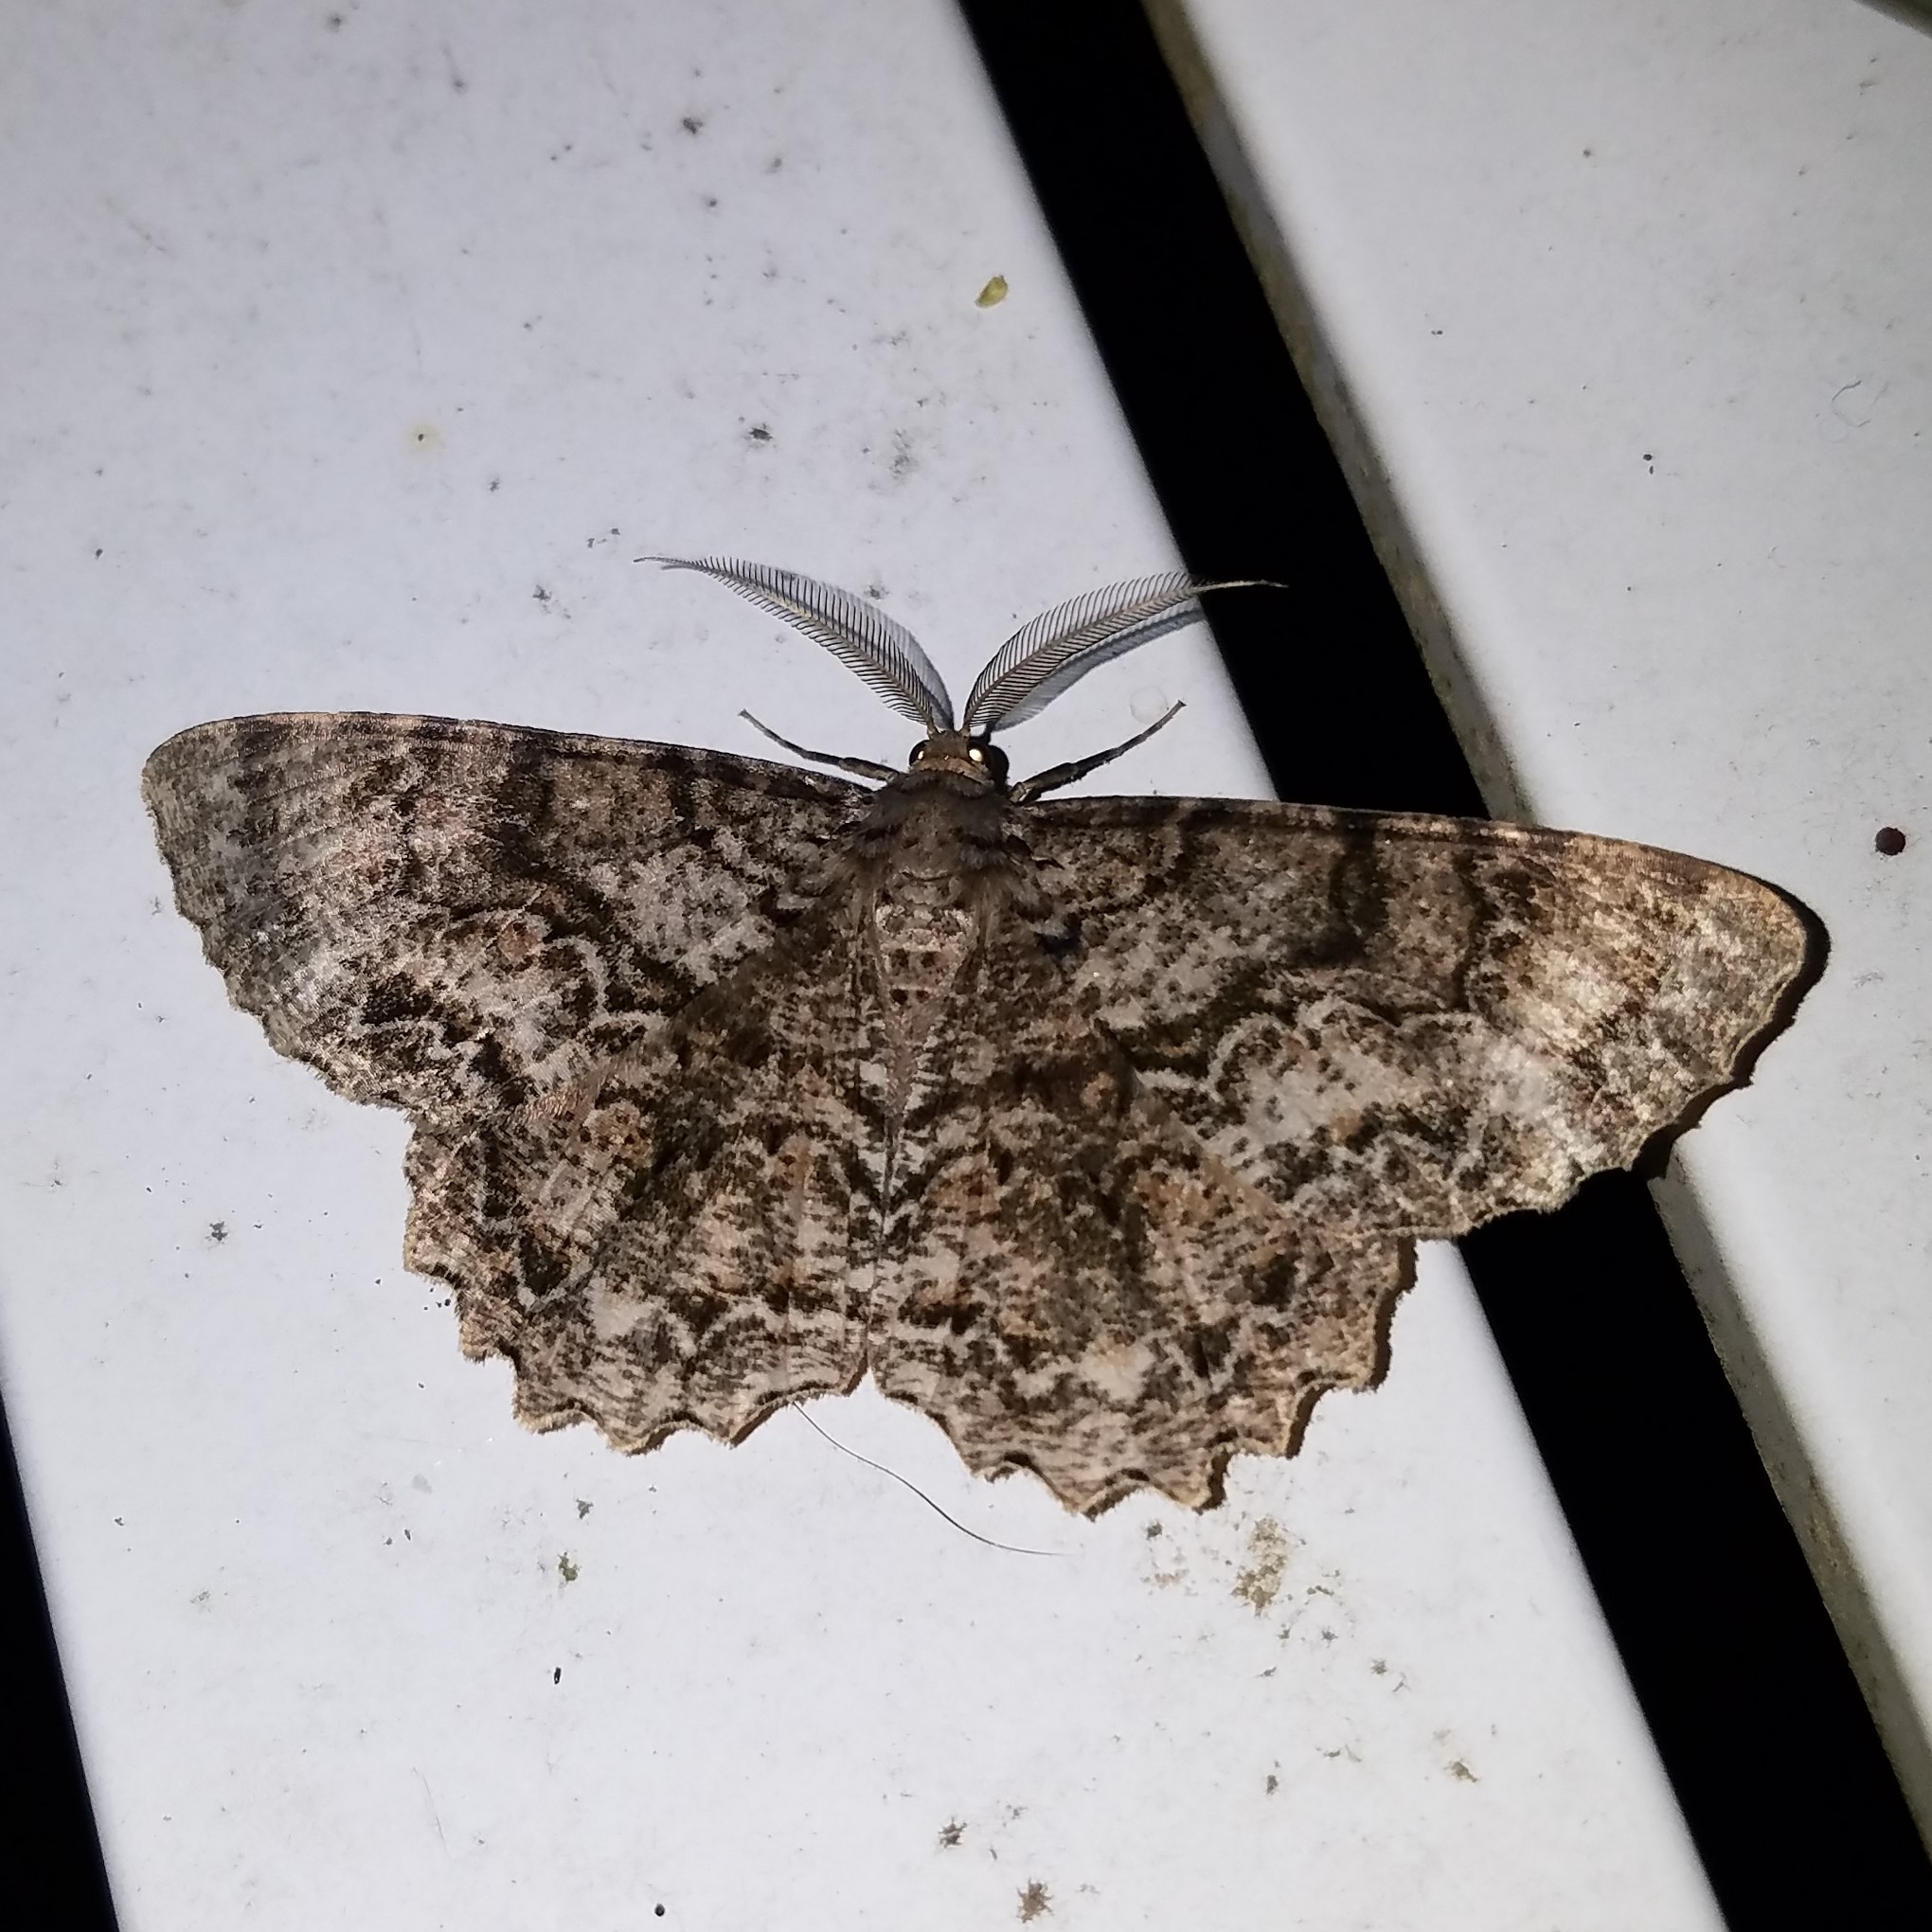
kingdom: Animalia
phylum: Arthropoda
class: Insecta
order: Lepidoptera
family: Geometridae
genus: Epimecis
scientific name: Epimecis hortaria
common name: Tulip-tree beauty
